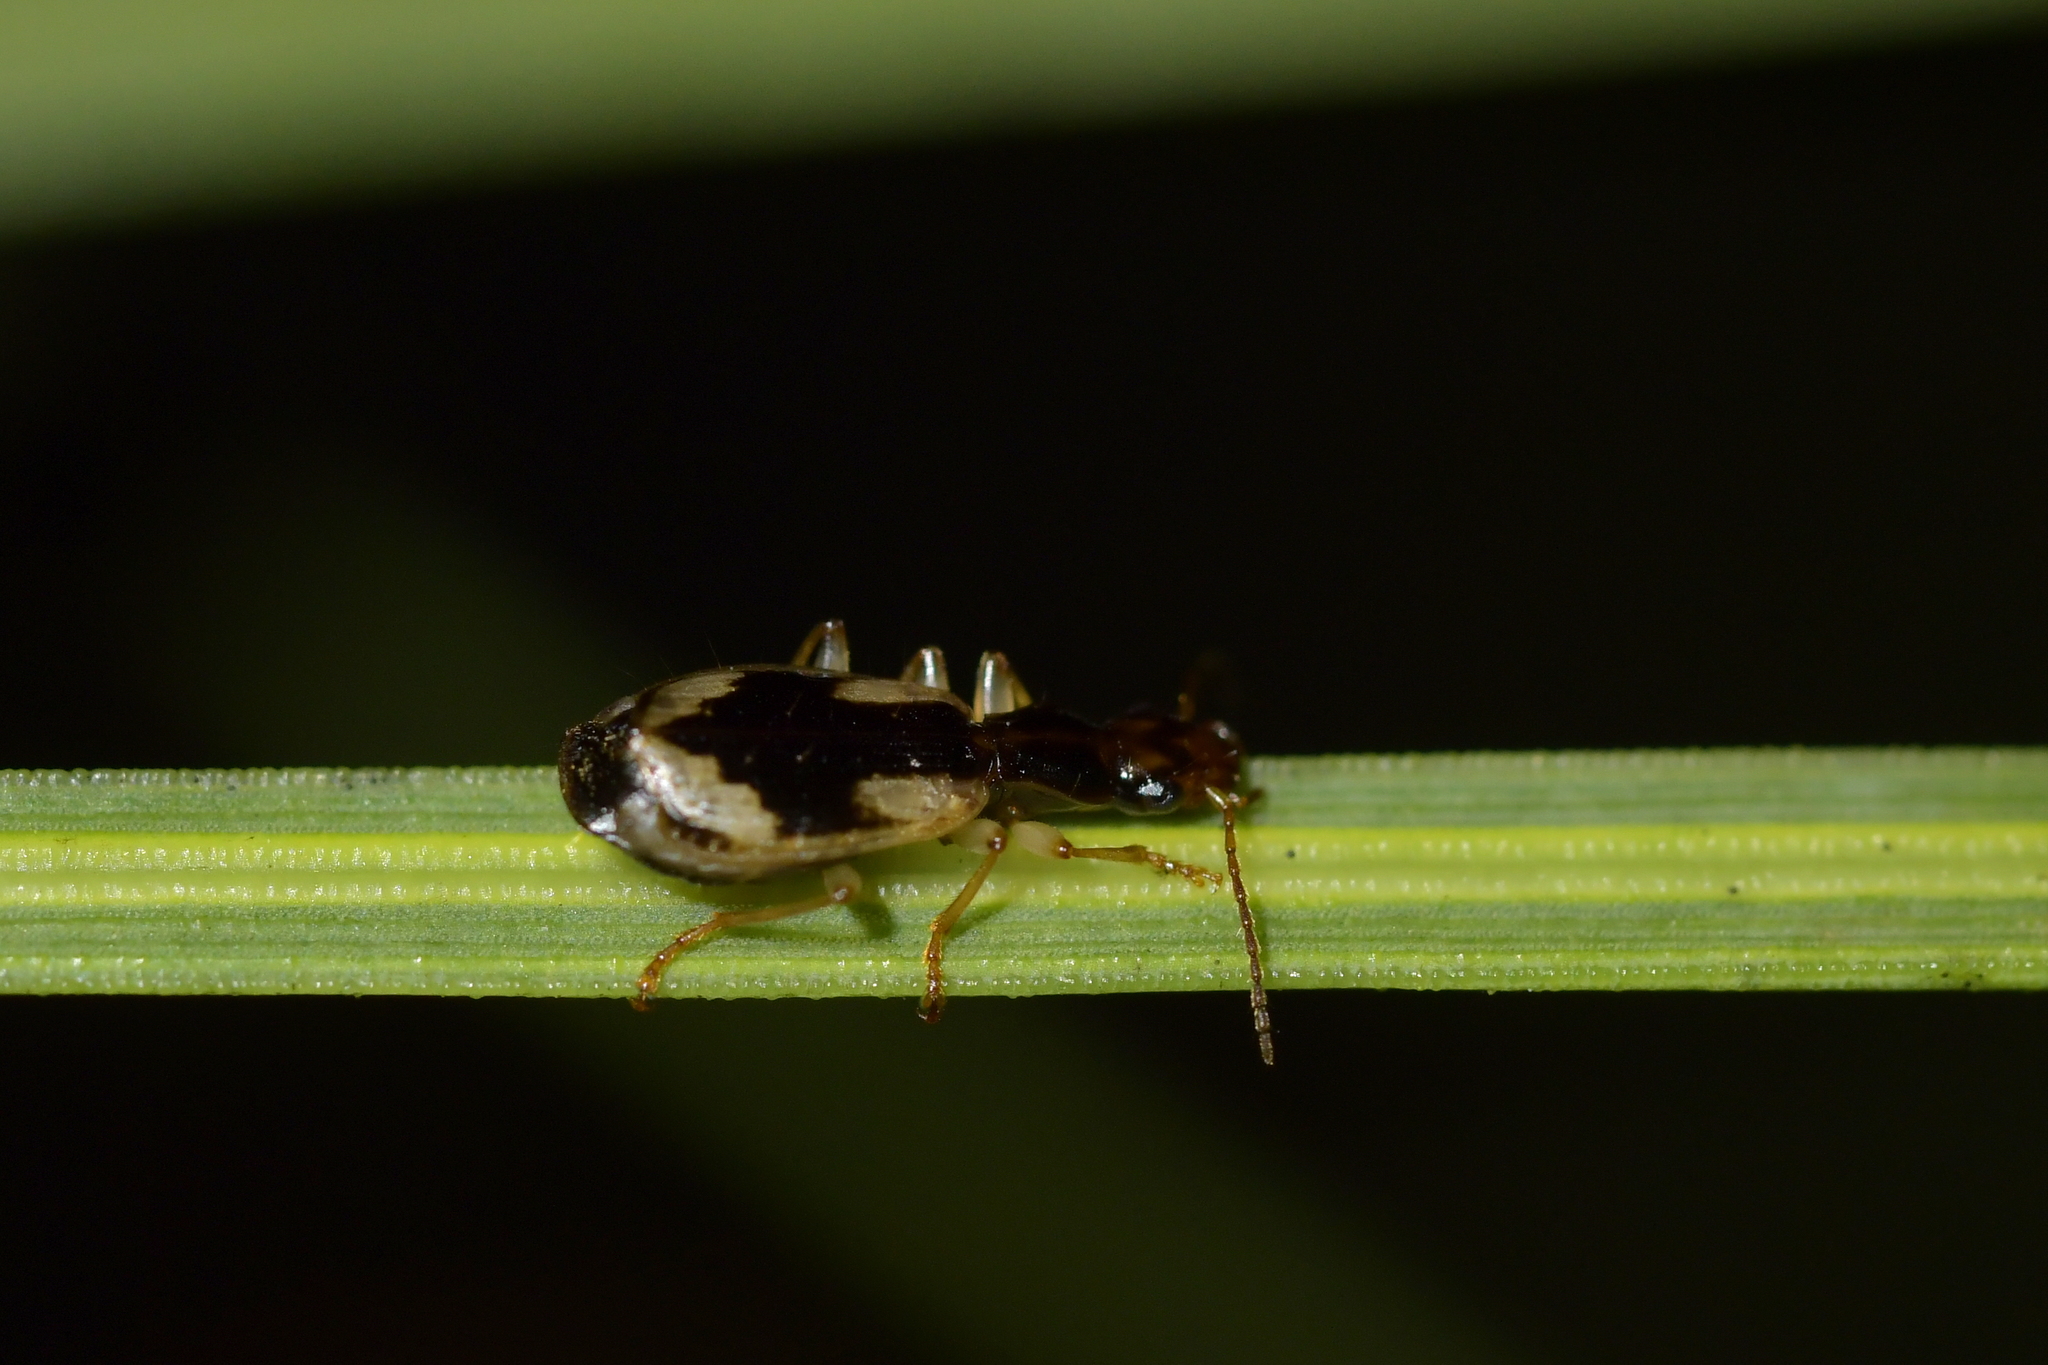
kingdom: Animalia
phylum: Arthropoda
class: Insecta
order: Coleoptera
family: Carabidae
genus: Demetrida
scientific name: Demetrida nasuta
